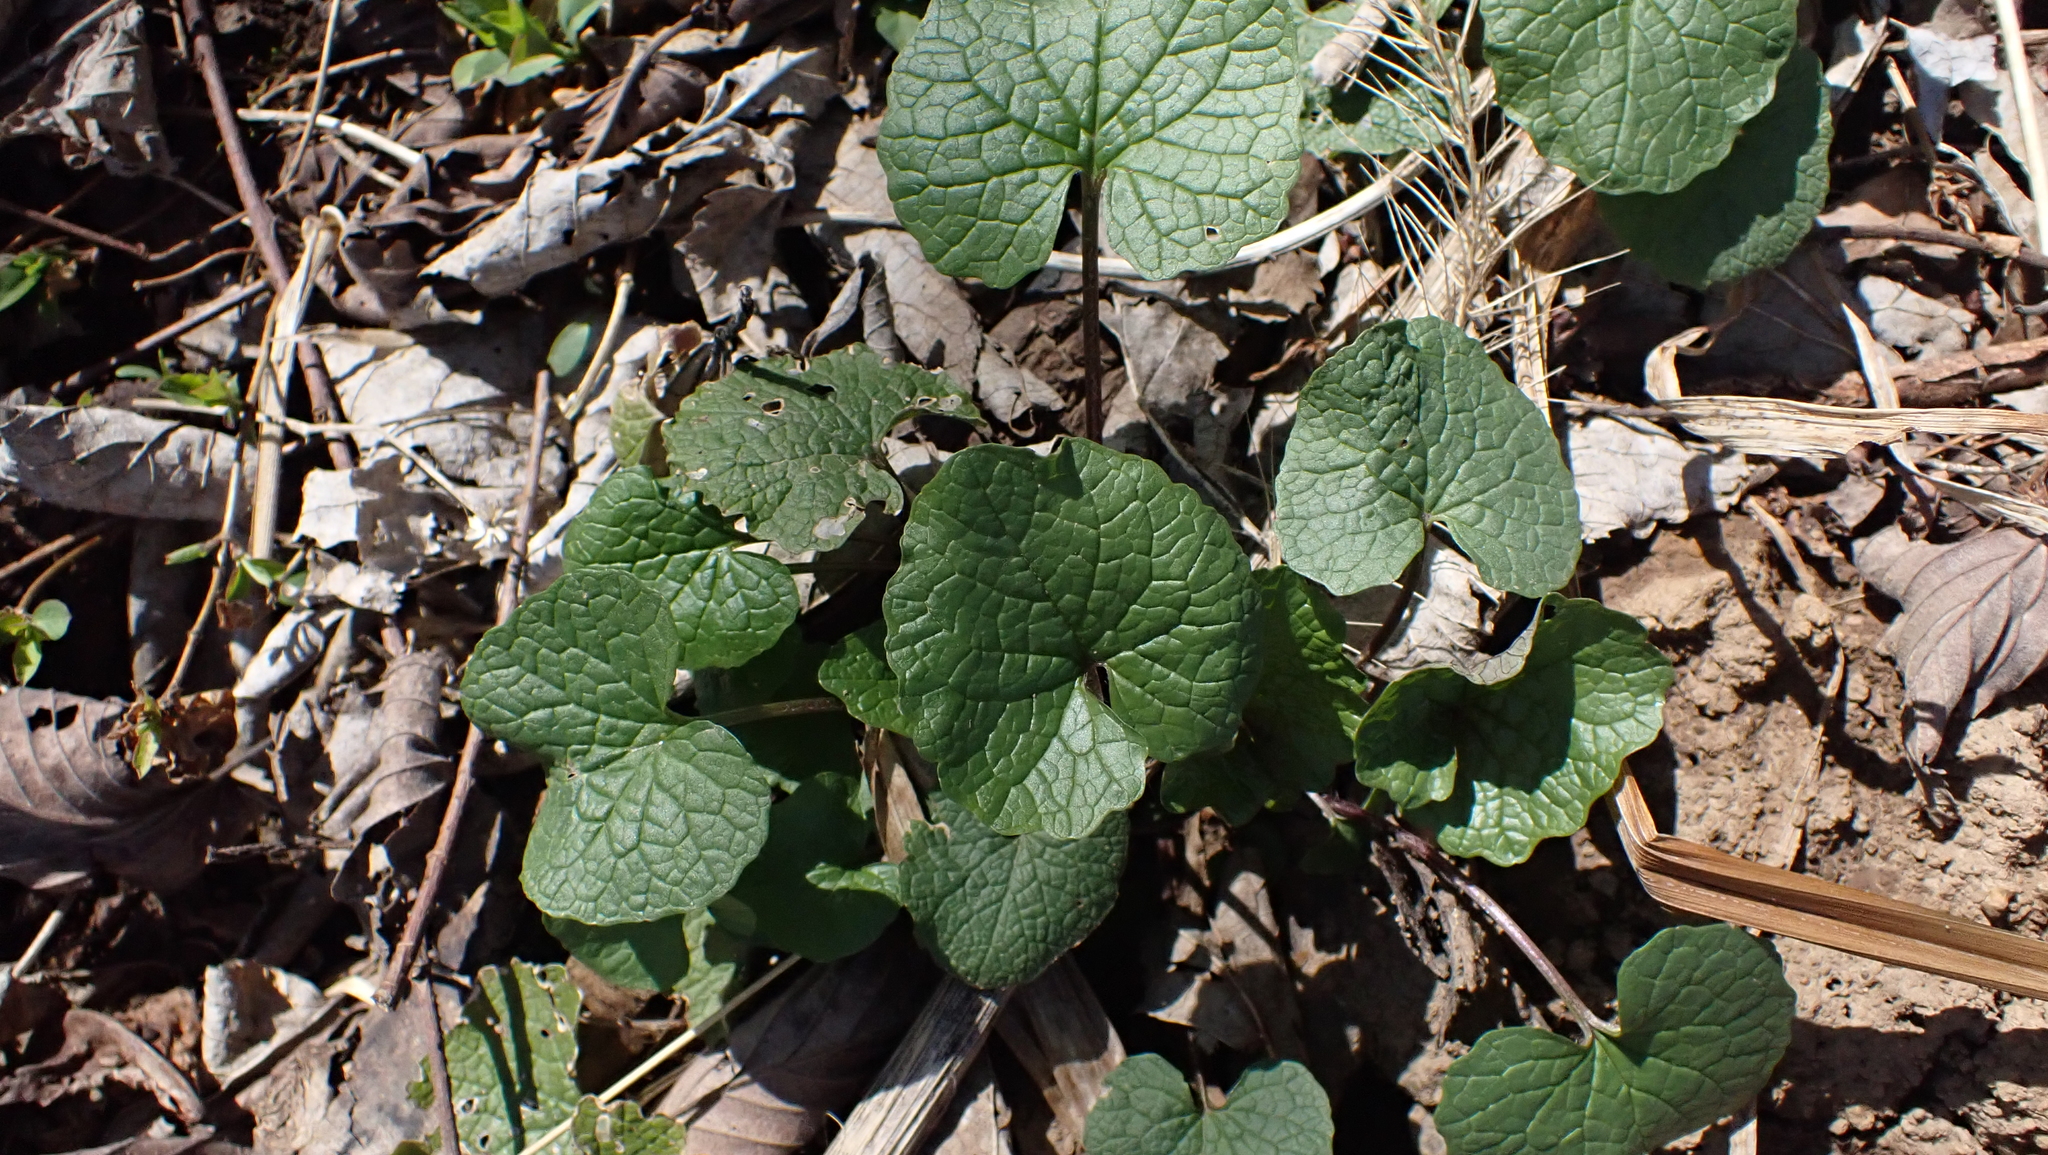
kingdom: Plantae
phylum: Tracheophyta
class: Magnoliopsida
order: Brassicales
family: Brassicaceae
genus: Alliaria
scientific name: Alliaria petiolata
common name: Garlic mustard
